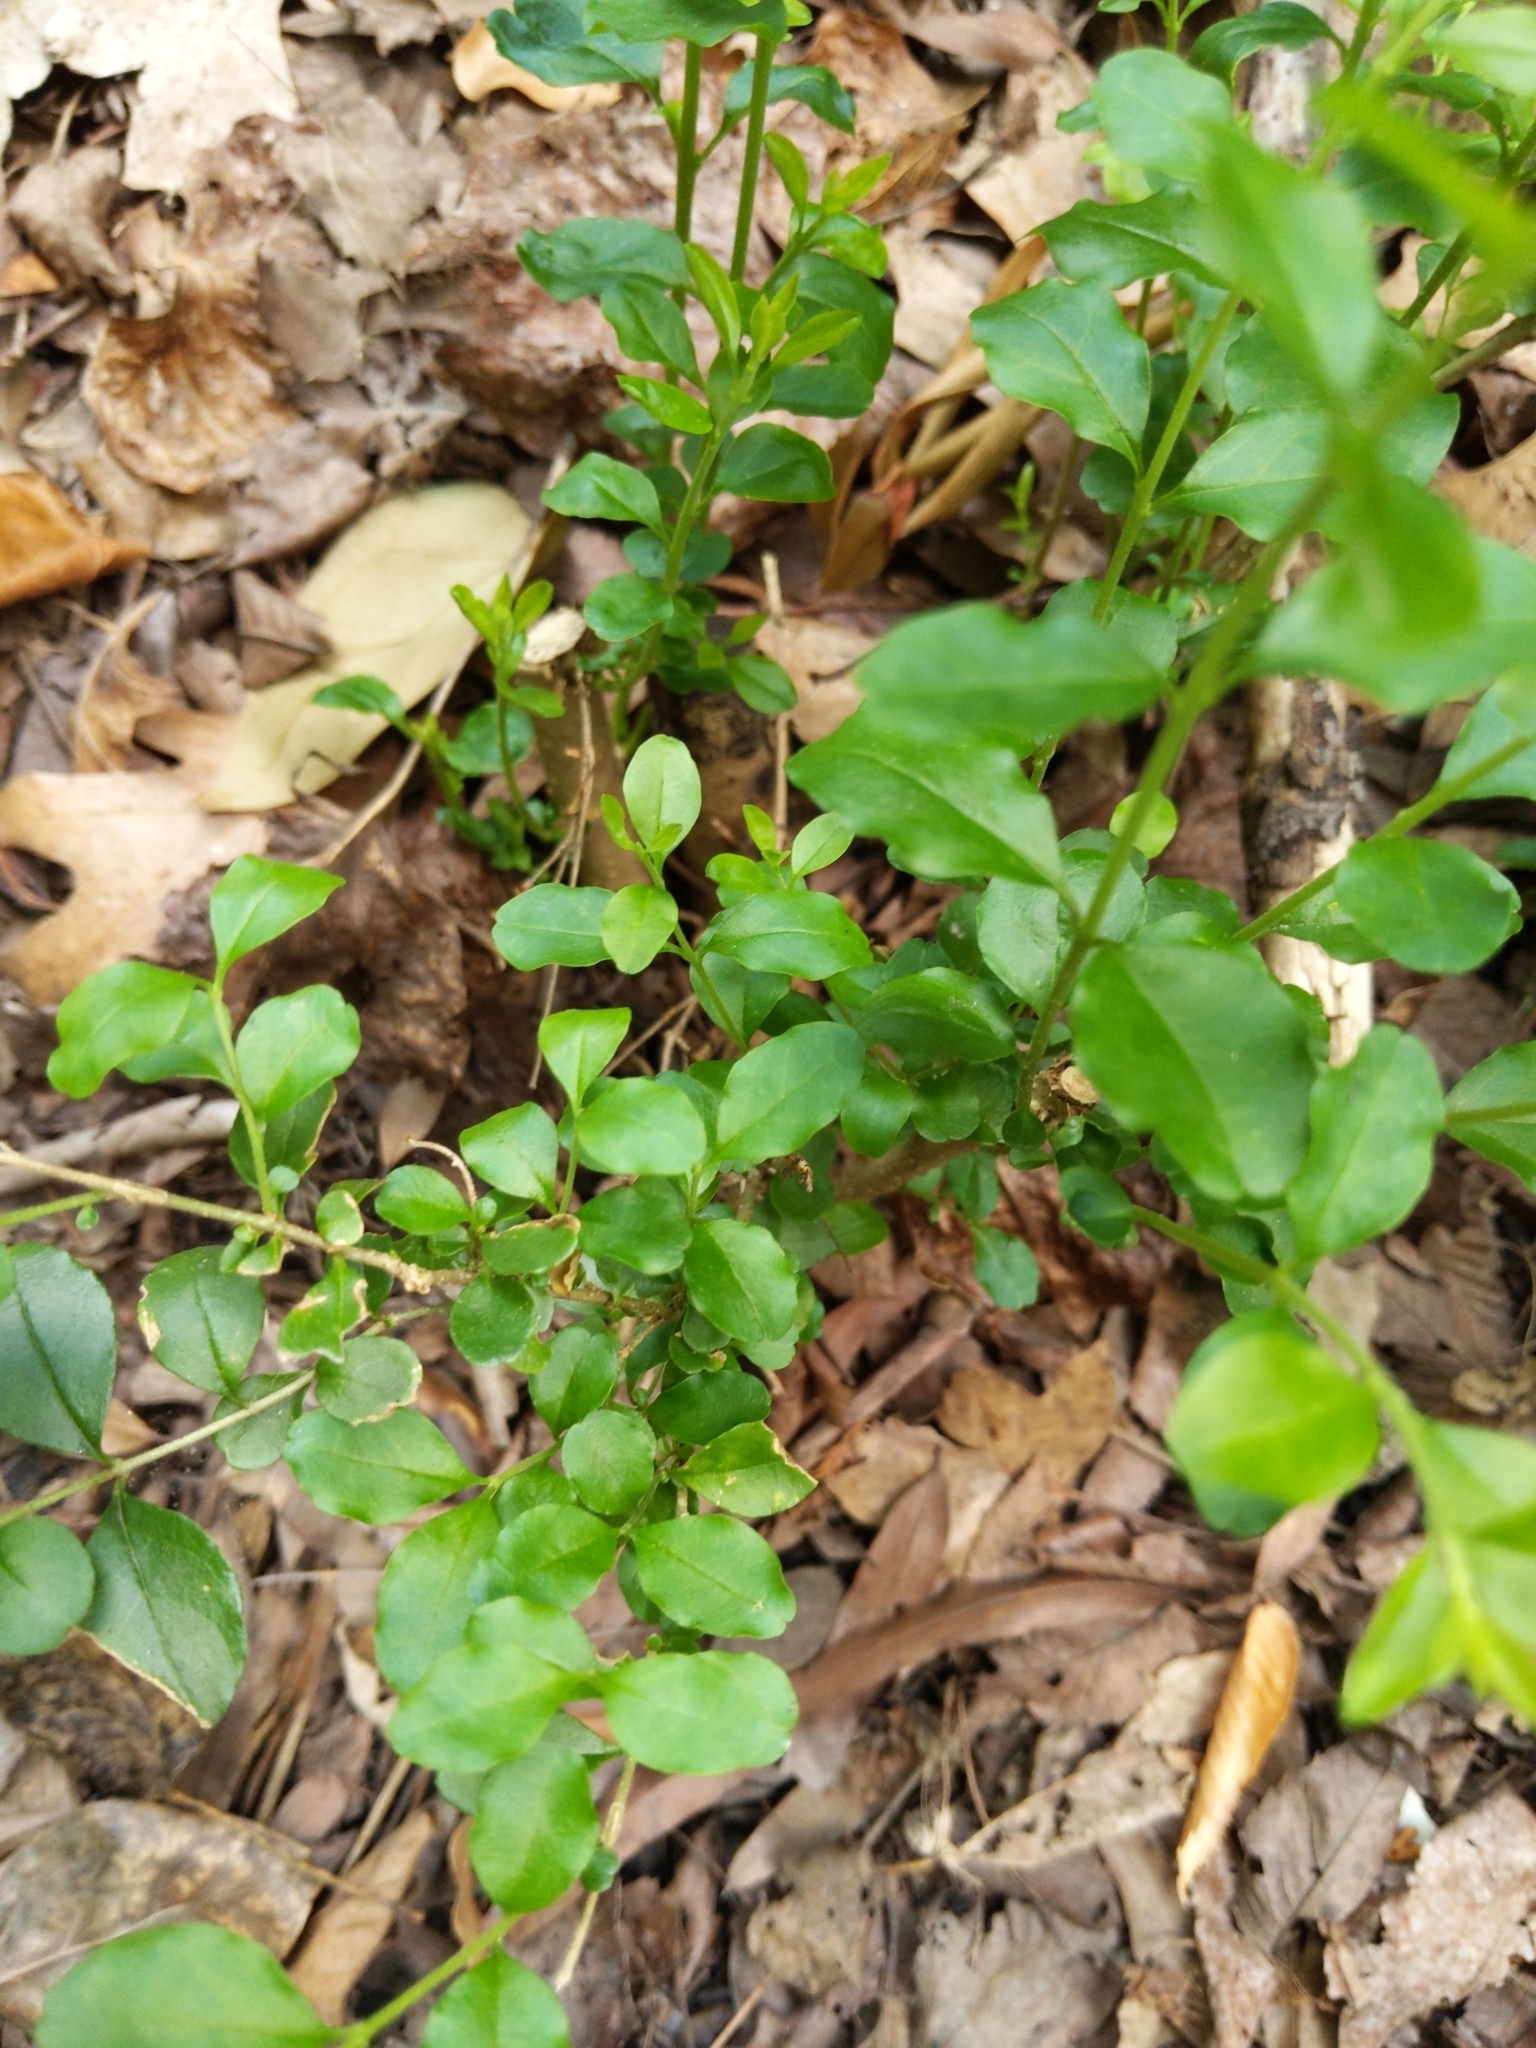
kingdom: Plantae
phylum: Tracheophyta
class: Magnoliopsida
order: Lamiales
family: Oleaceae
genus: Ligustrum
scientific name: Ligustrum sinense
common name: Chinese privet
